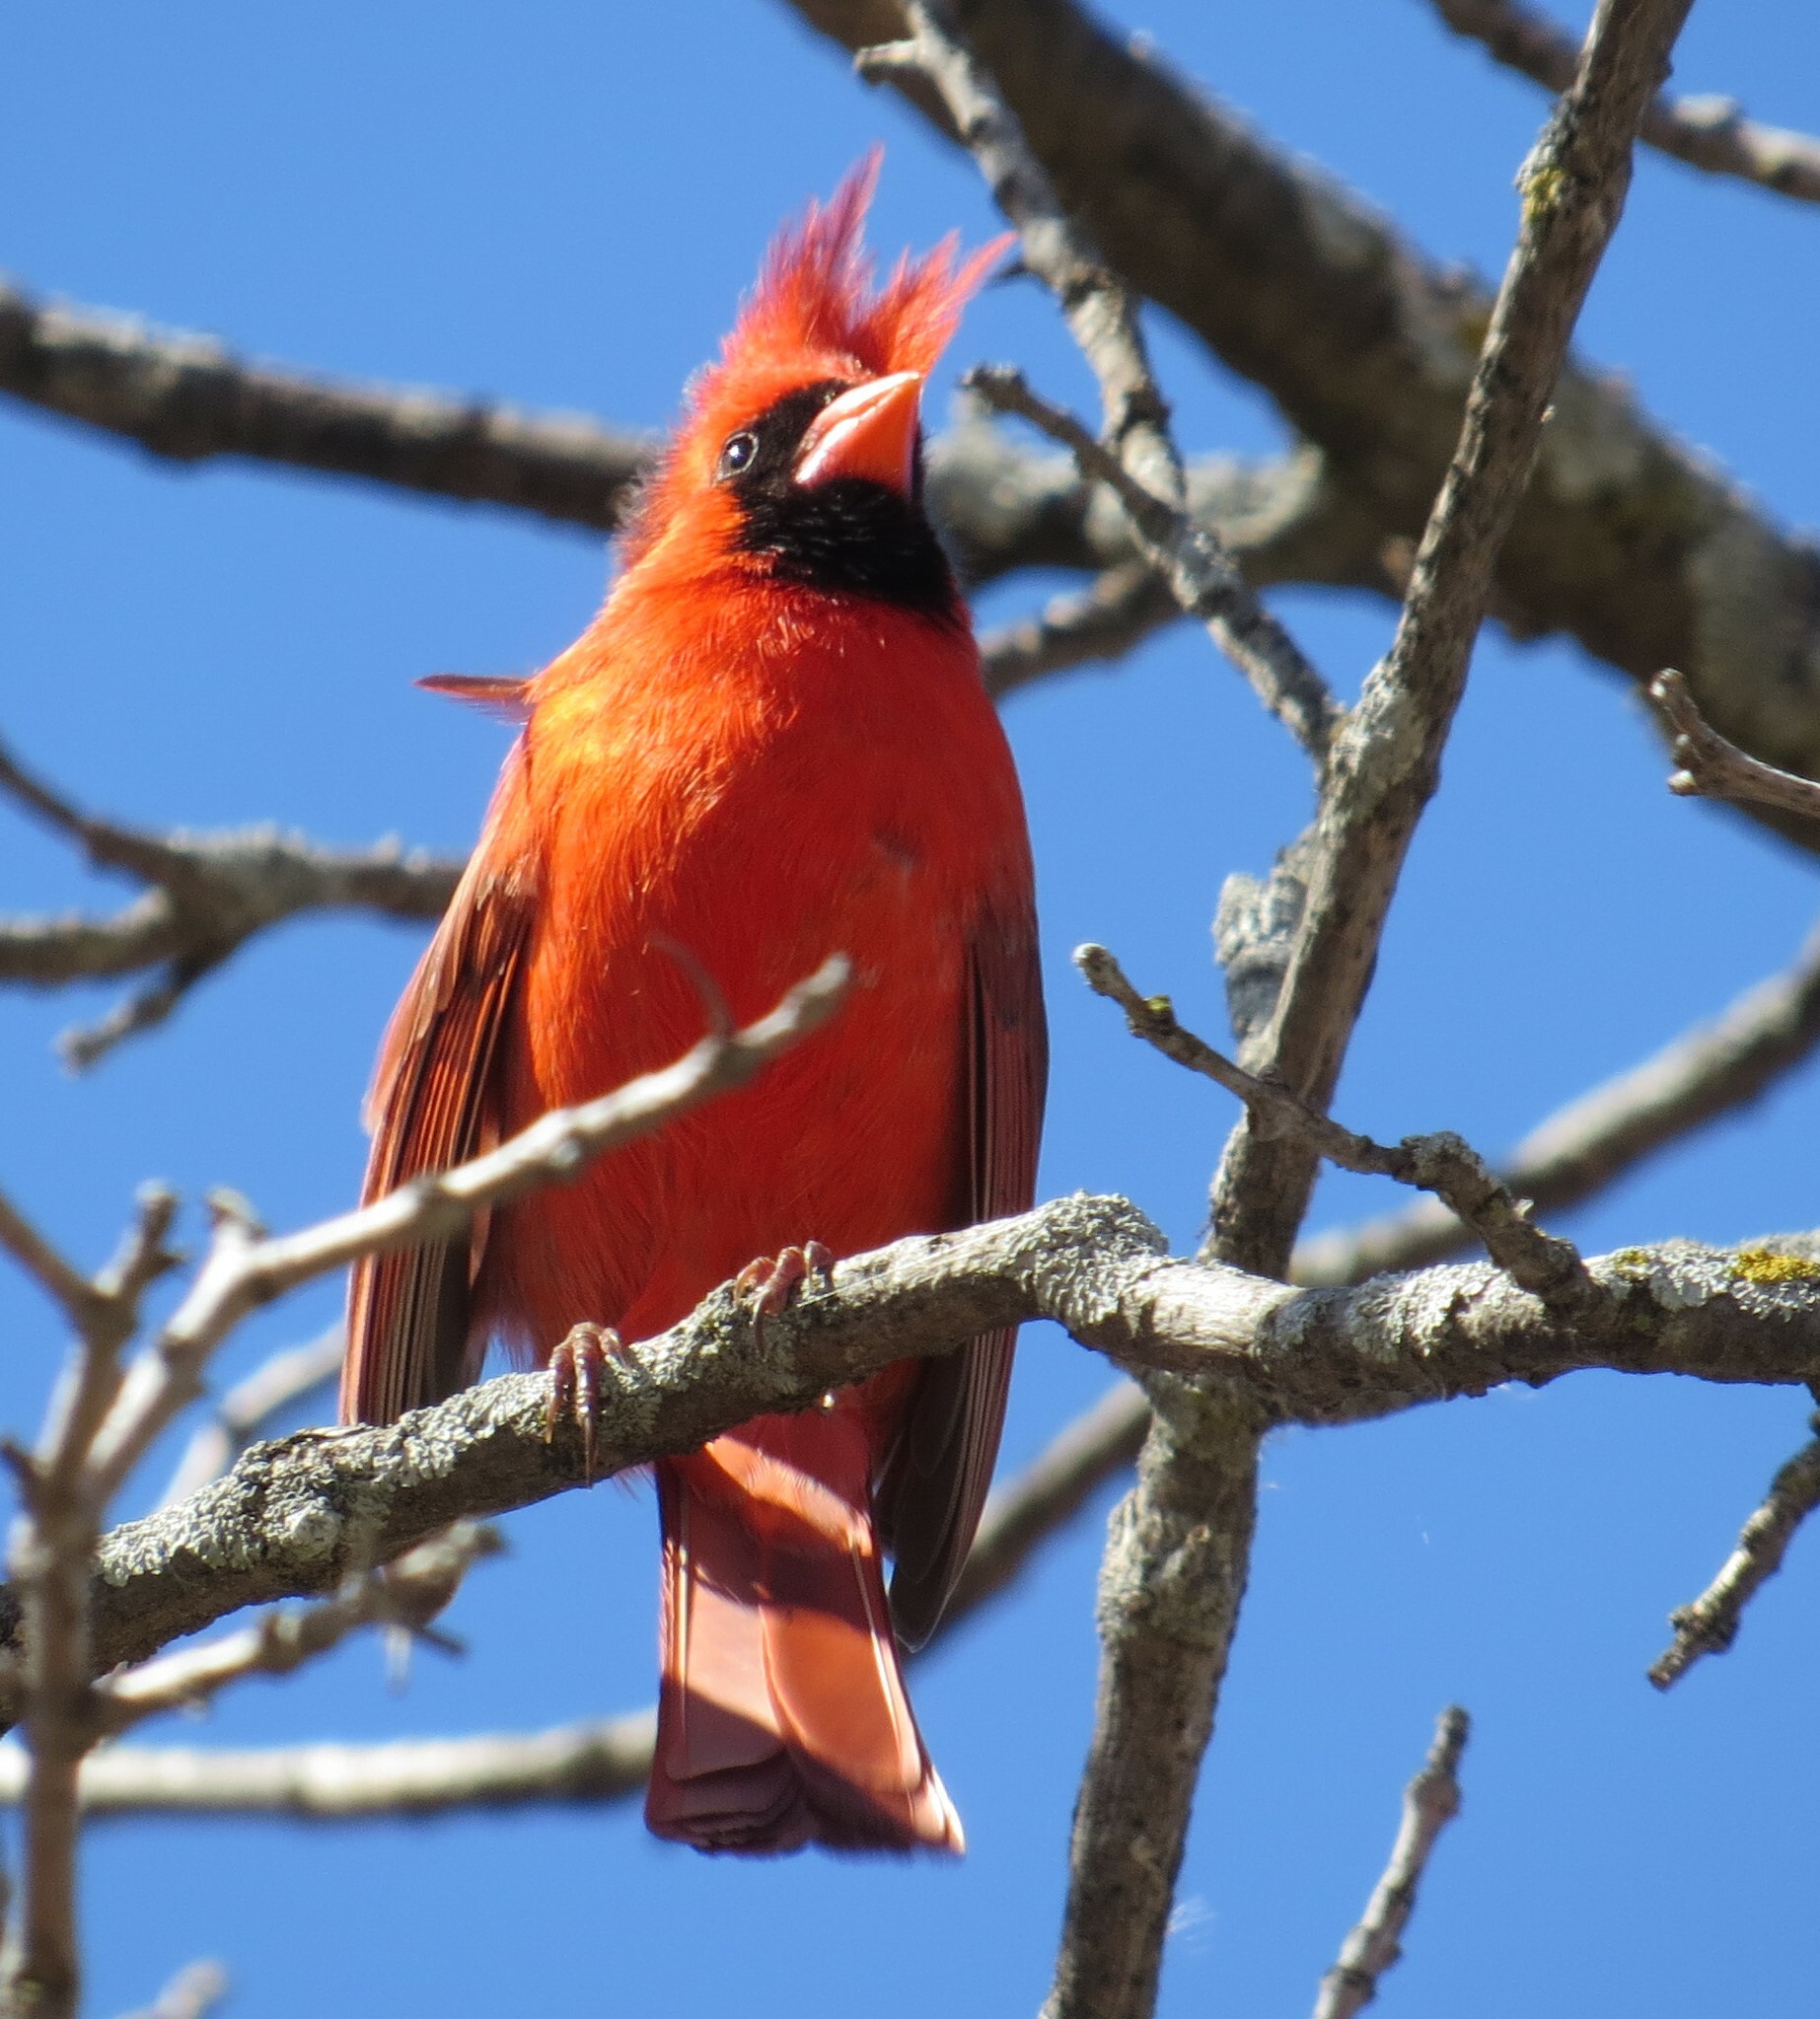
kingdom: Animalia
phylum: Chordata
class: Aves
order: Passeriformes
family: Cardinalidae
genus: Cardinalis
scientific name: Cardinalis cardinalis
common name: Northern cardinal
